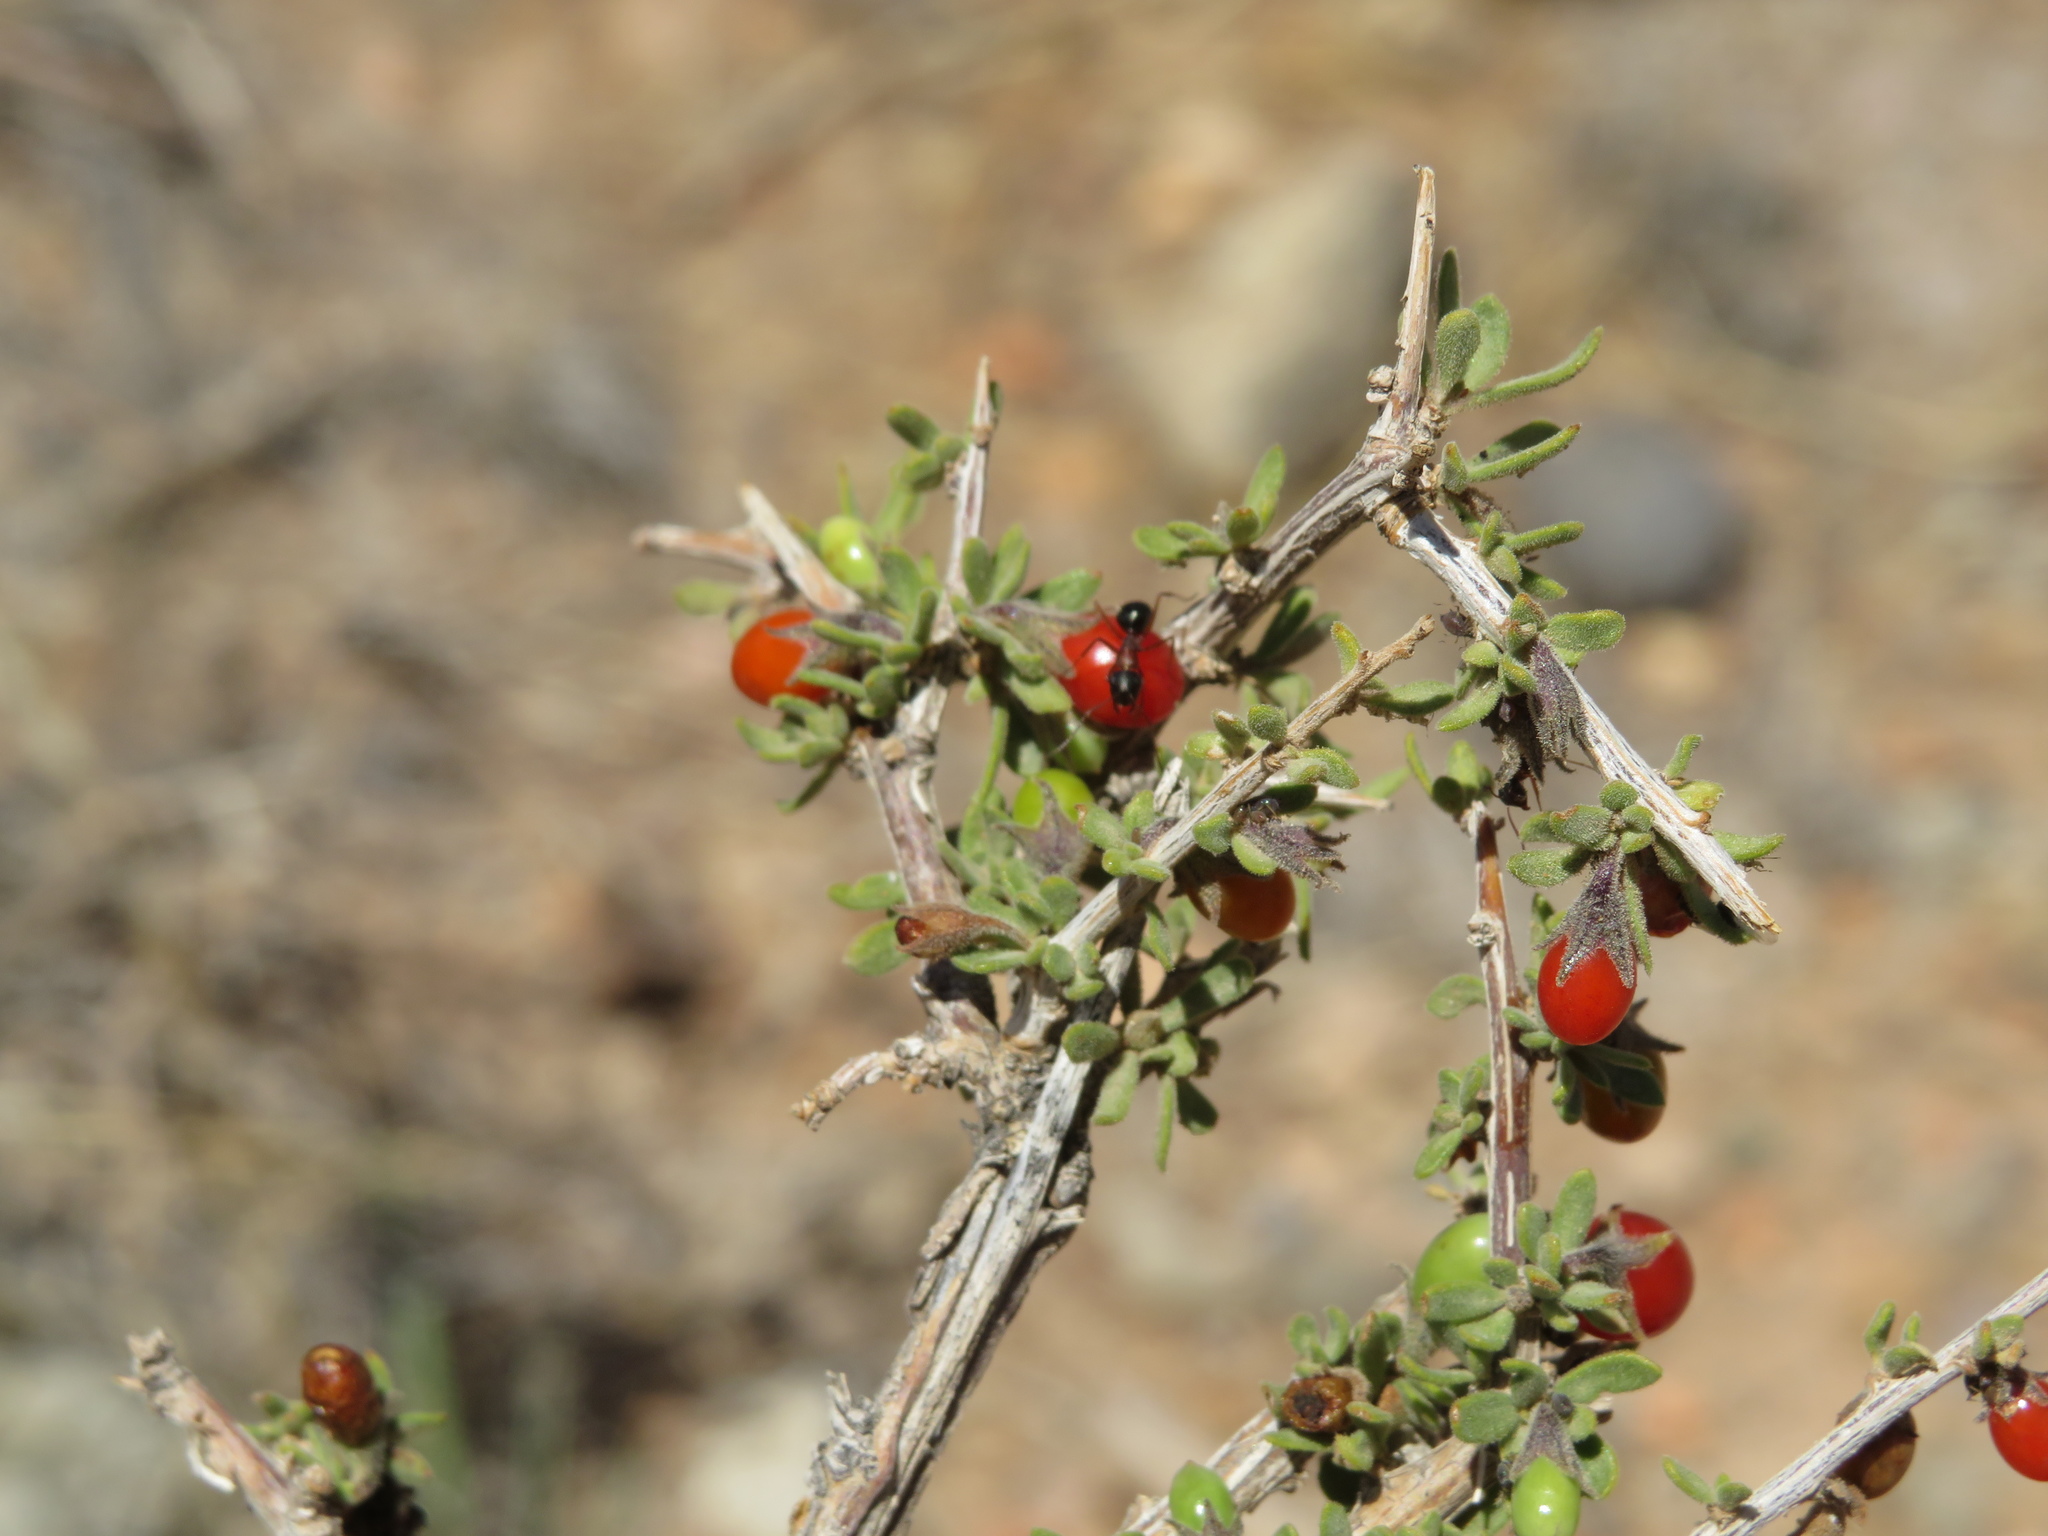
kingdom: Plantae
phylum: Tracheophyta
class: Magnoliopsida
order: Solanales
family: Solanaceae
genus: Lycium
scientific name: Lycium chilense
